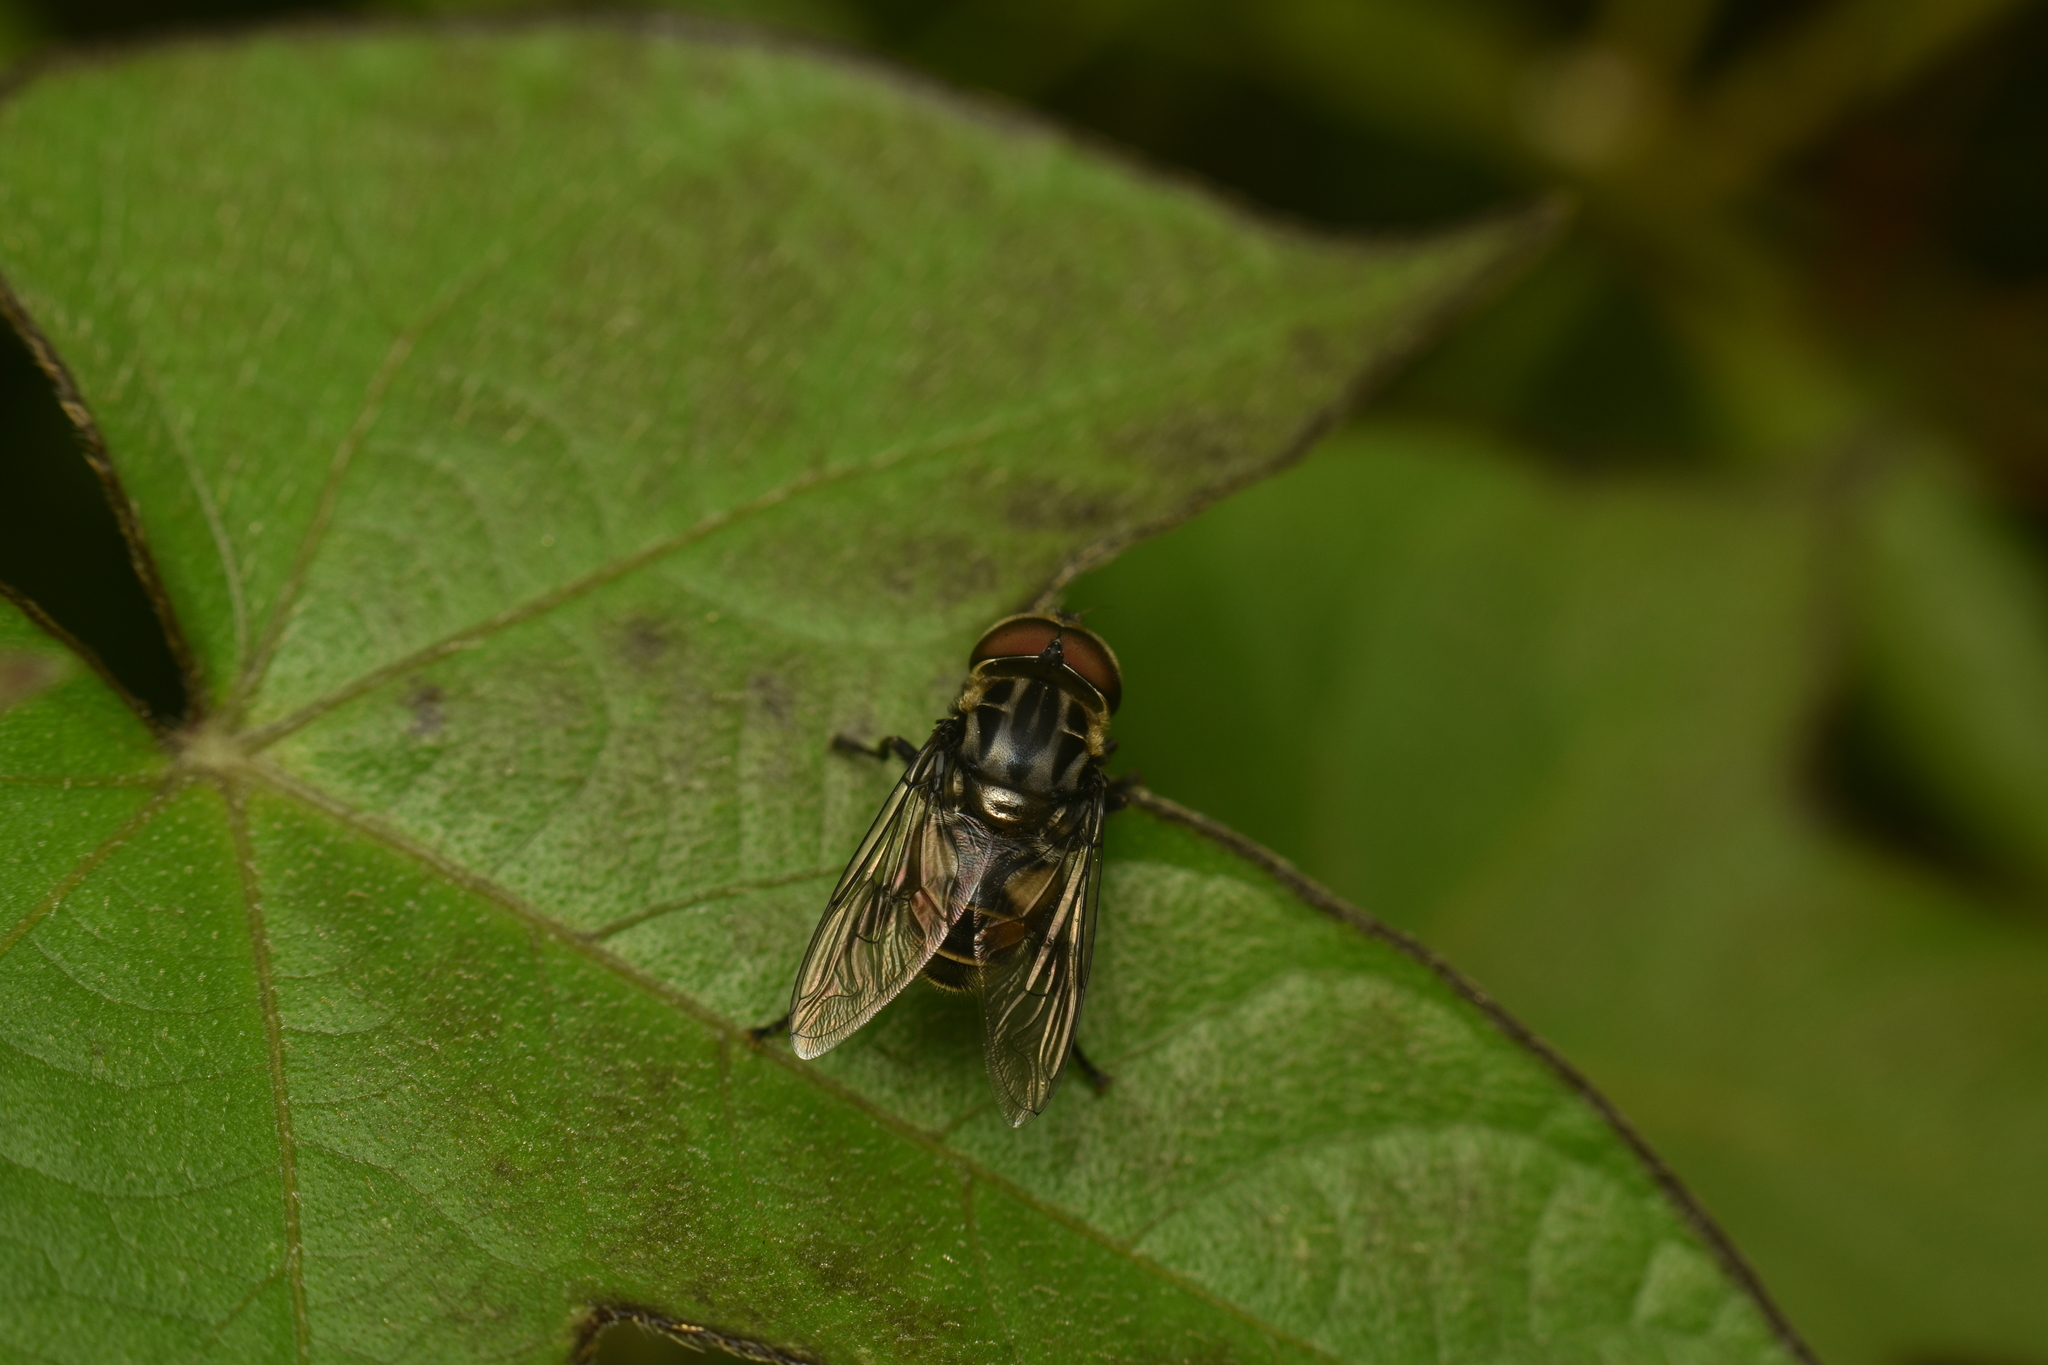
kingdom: Animalia
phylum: Arthropoda
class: Insecta
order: Diptera
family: Syrphidae
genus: Palpada
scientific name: Palpada furcata
